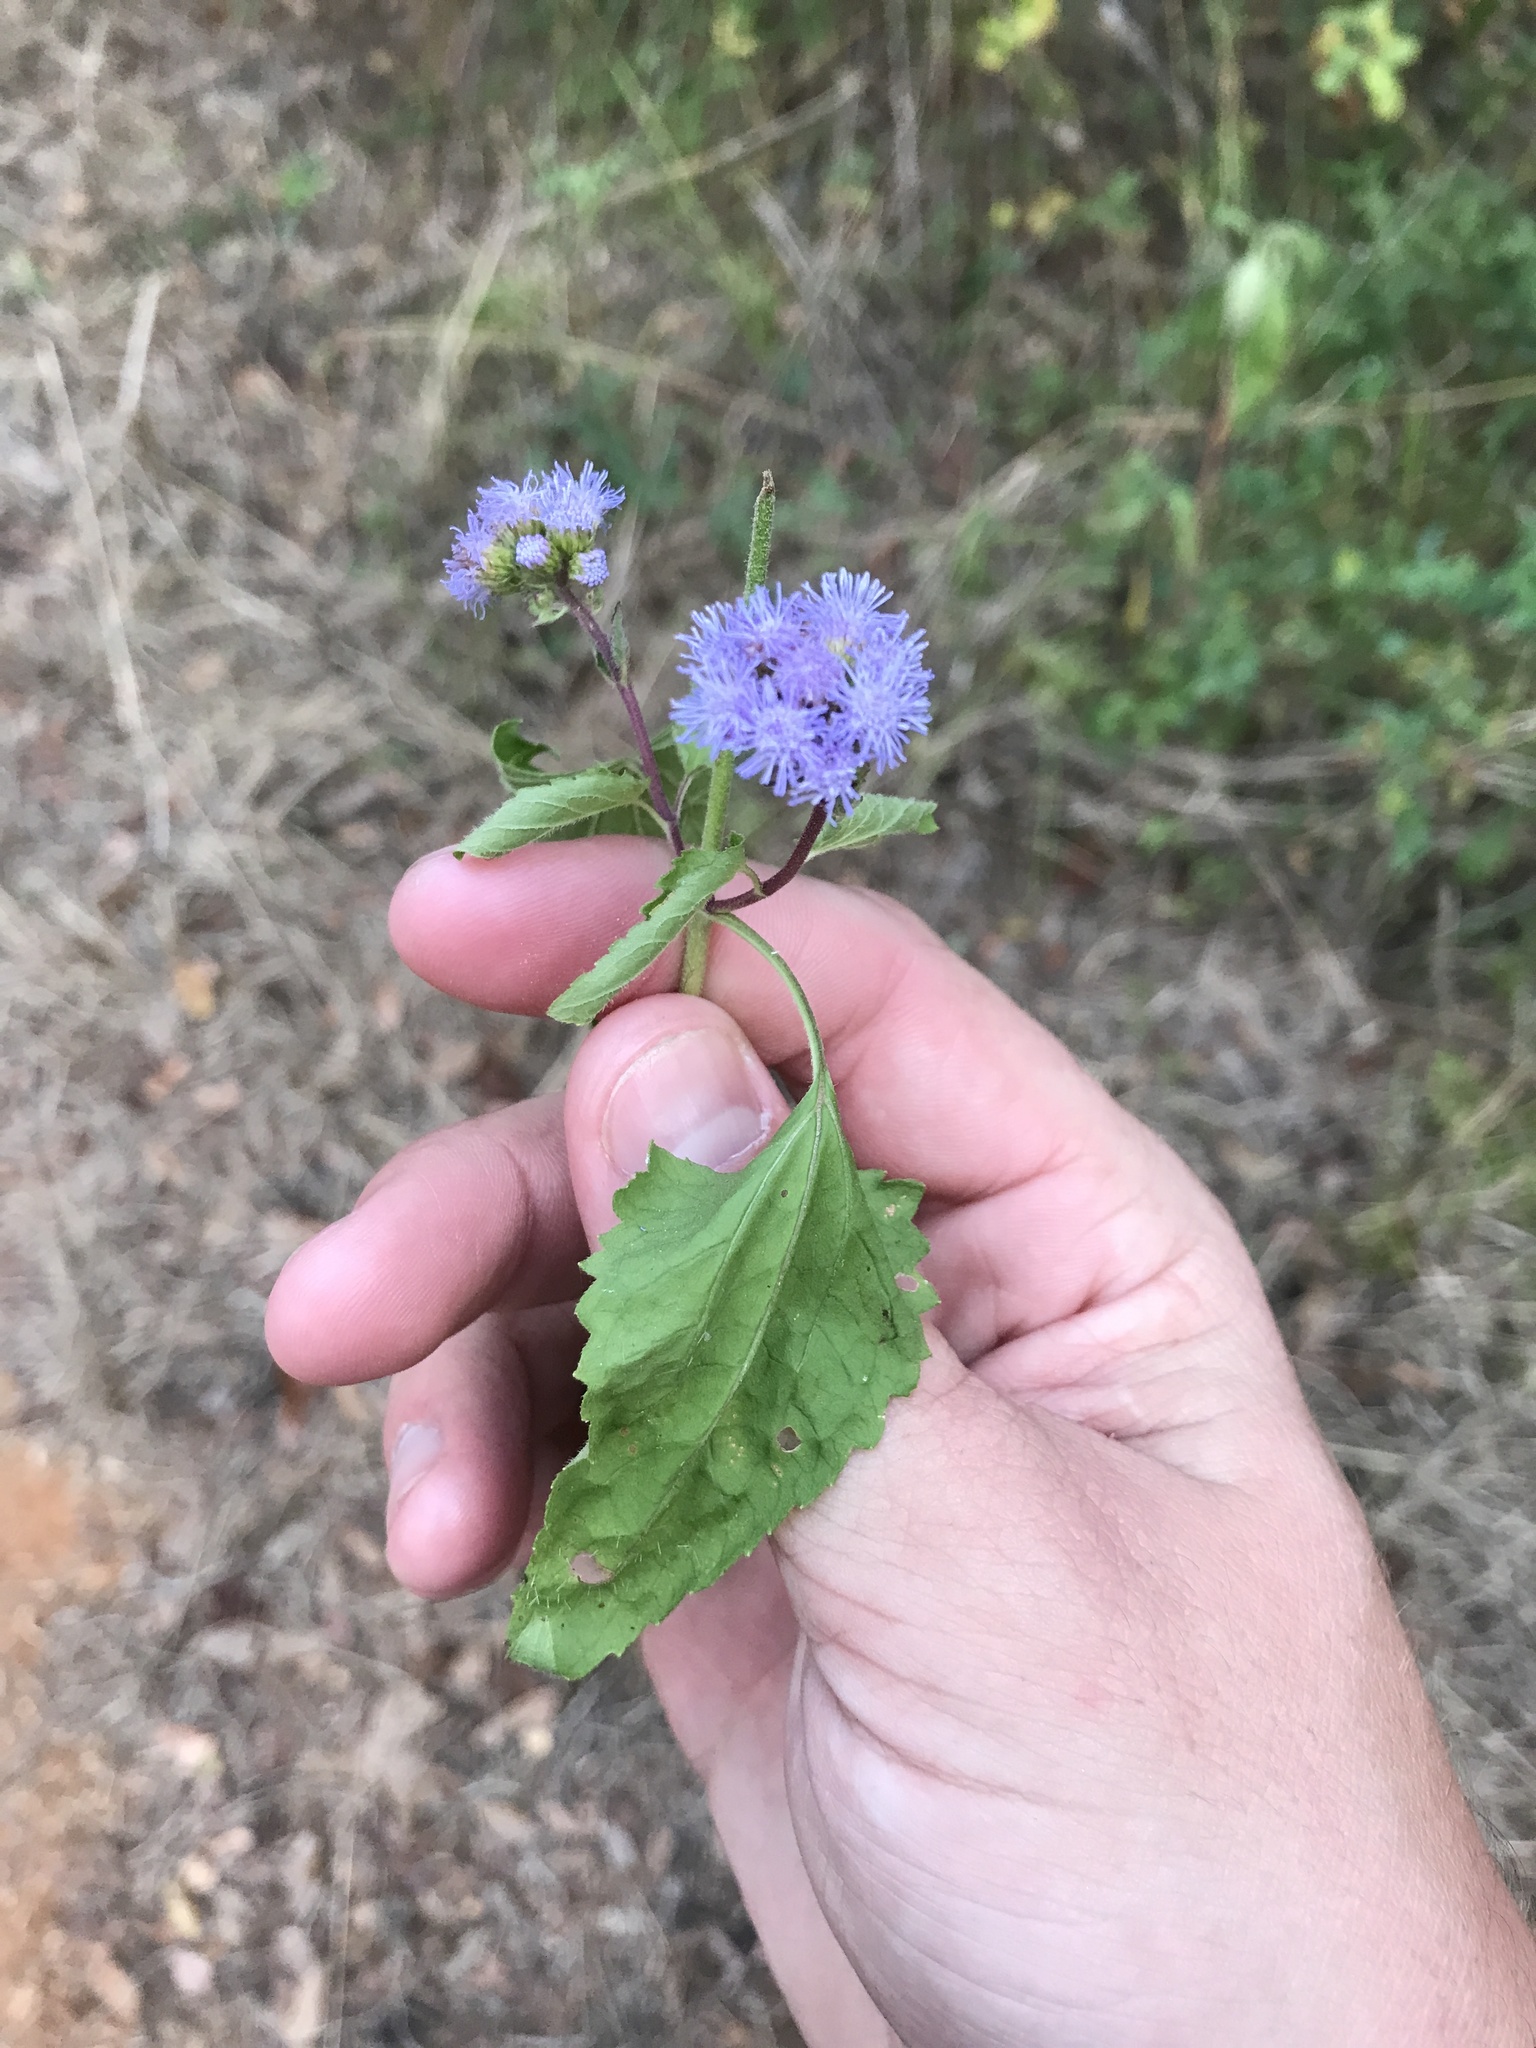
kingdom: Plantae
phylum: Tracheophyta
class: Magnoliopsida
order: Asterales
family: Asteraceae
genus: Conoclinium
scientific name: Conoclinium coelestinum
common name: Blue mistflower
